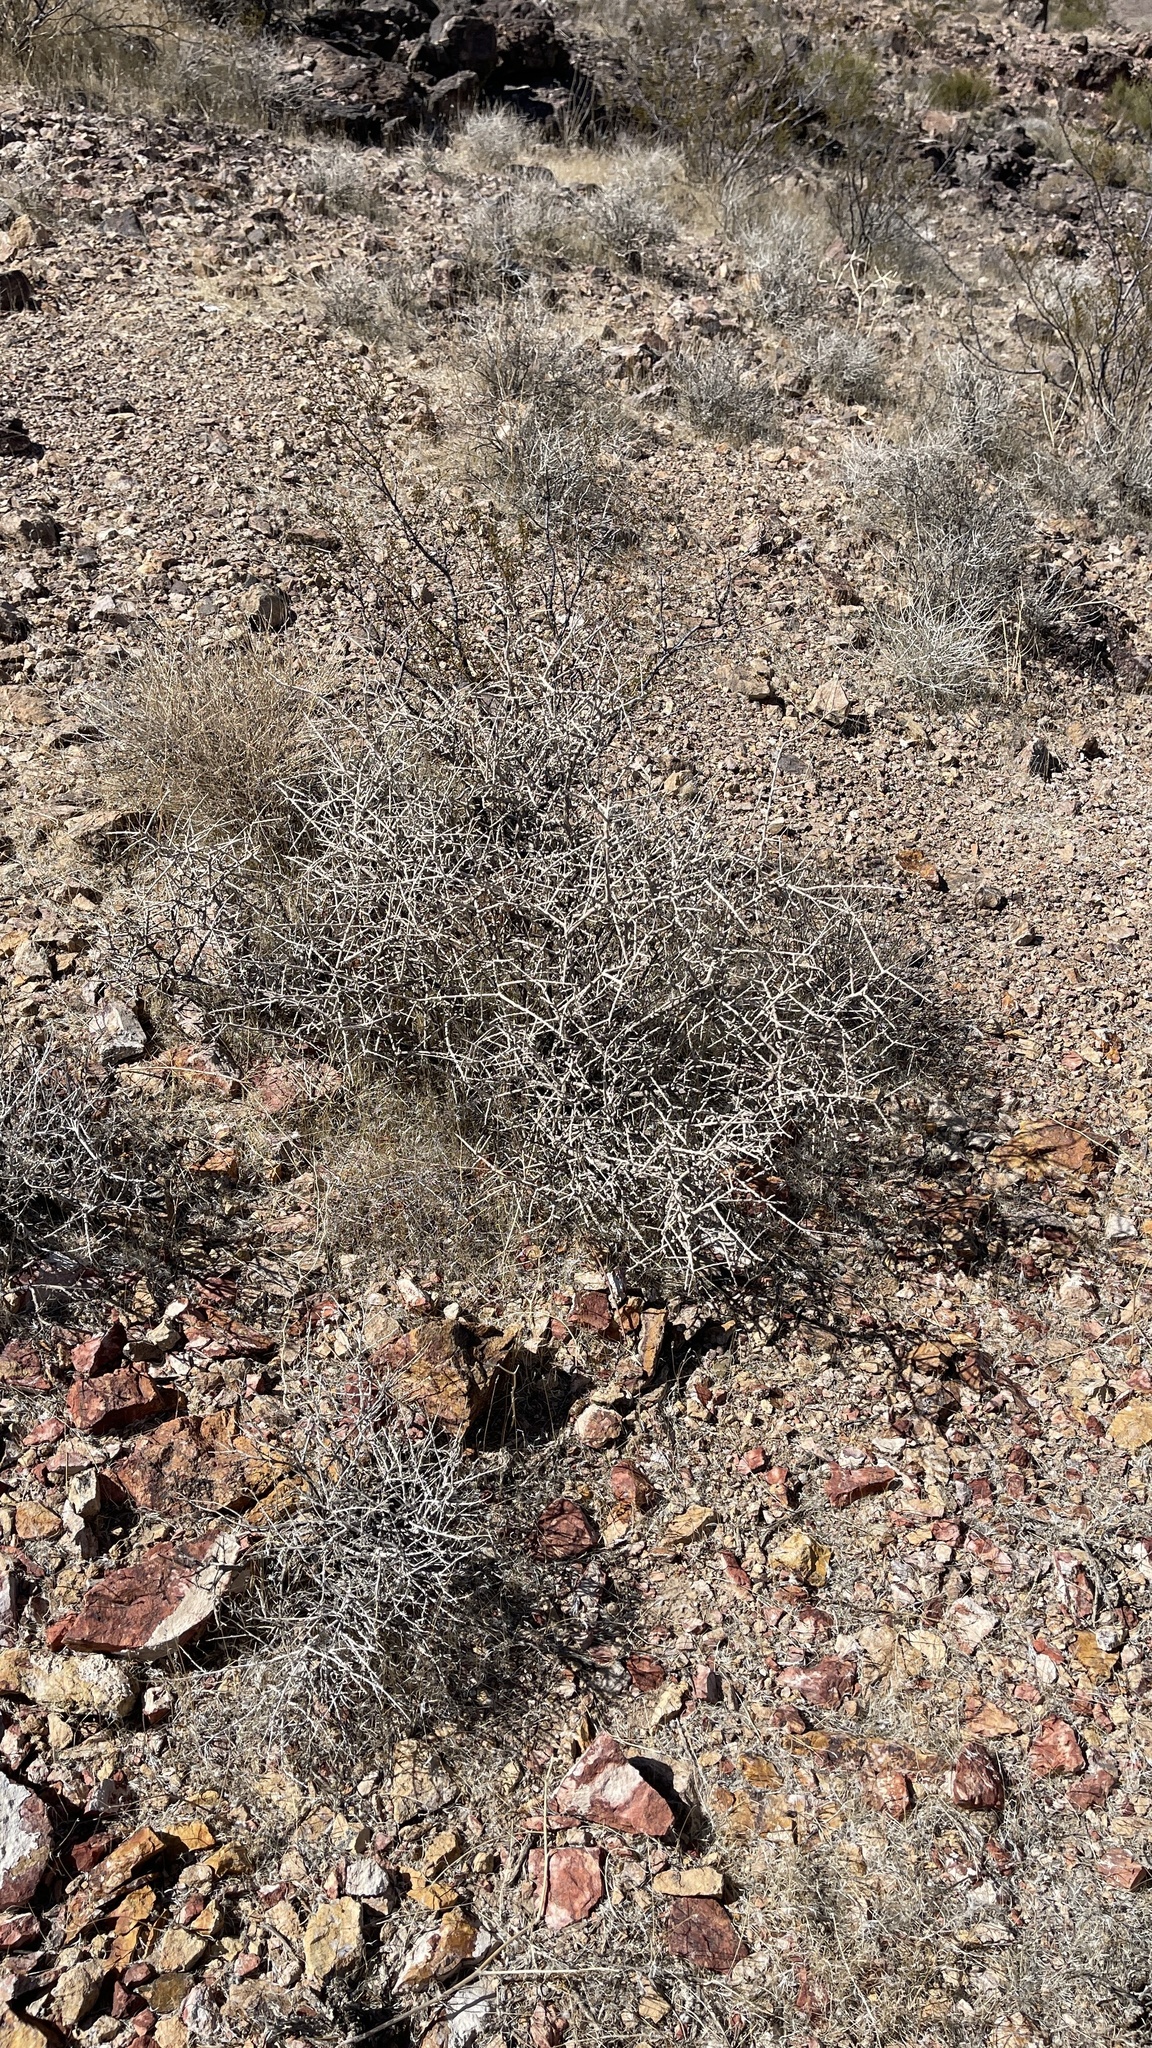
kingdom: Plantae
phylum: Tracheophyta
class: Magnoliopsida
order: Solanales
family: Solanaceae
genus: Lycium
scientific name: Lycium andersonii
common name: Water-jacket
